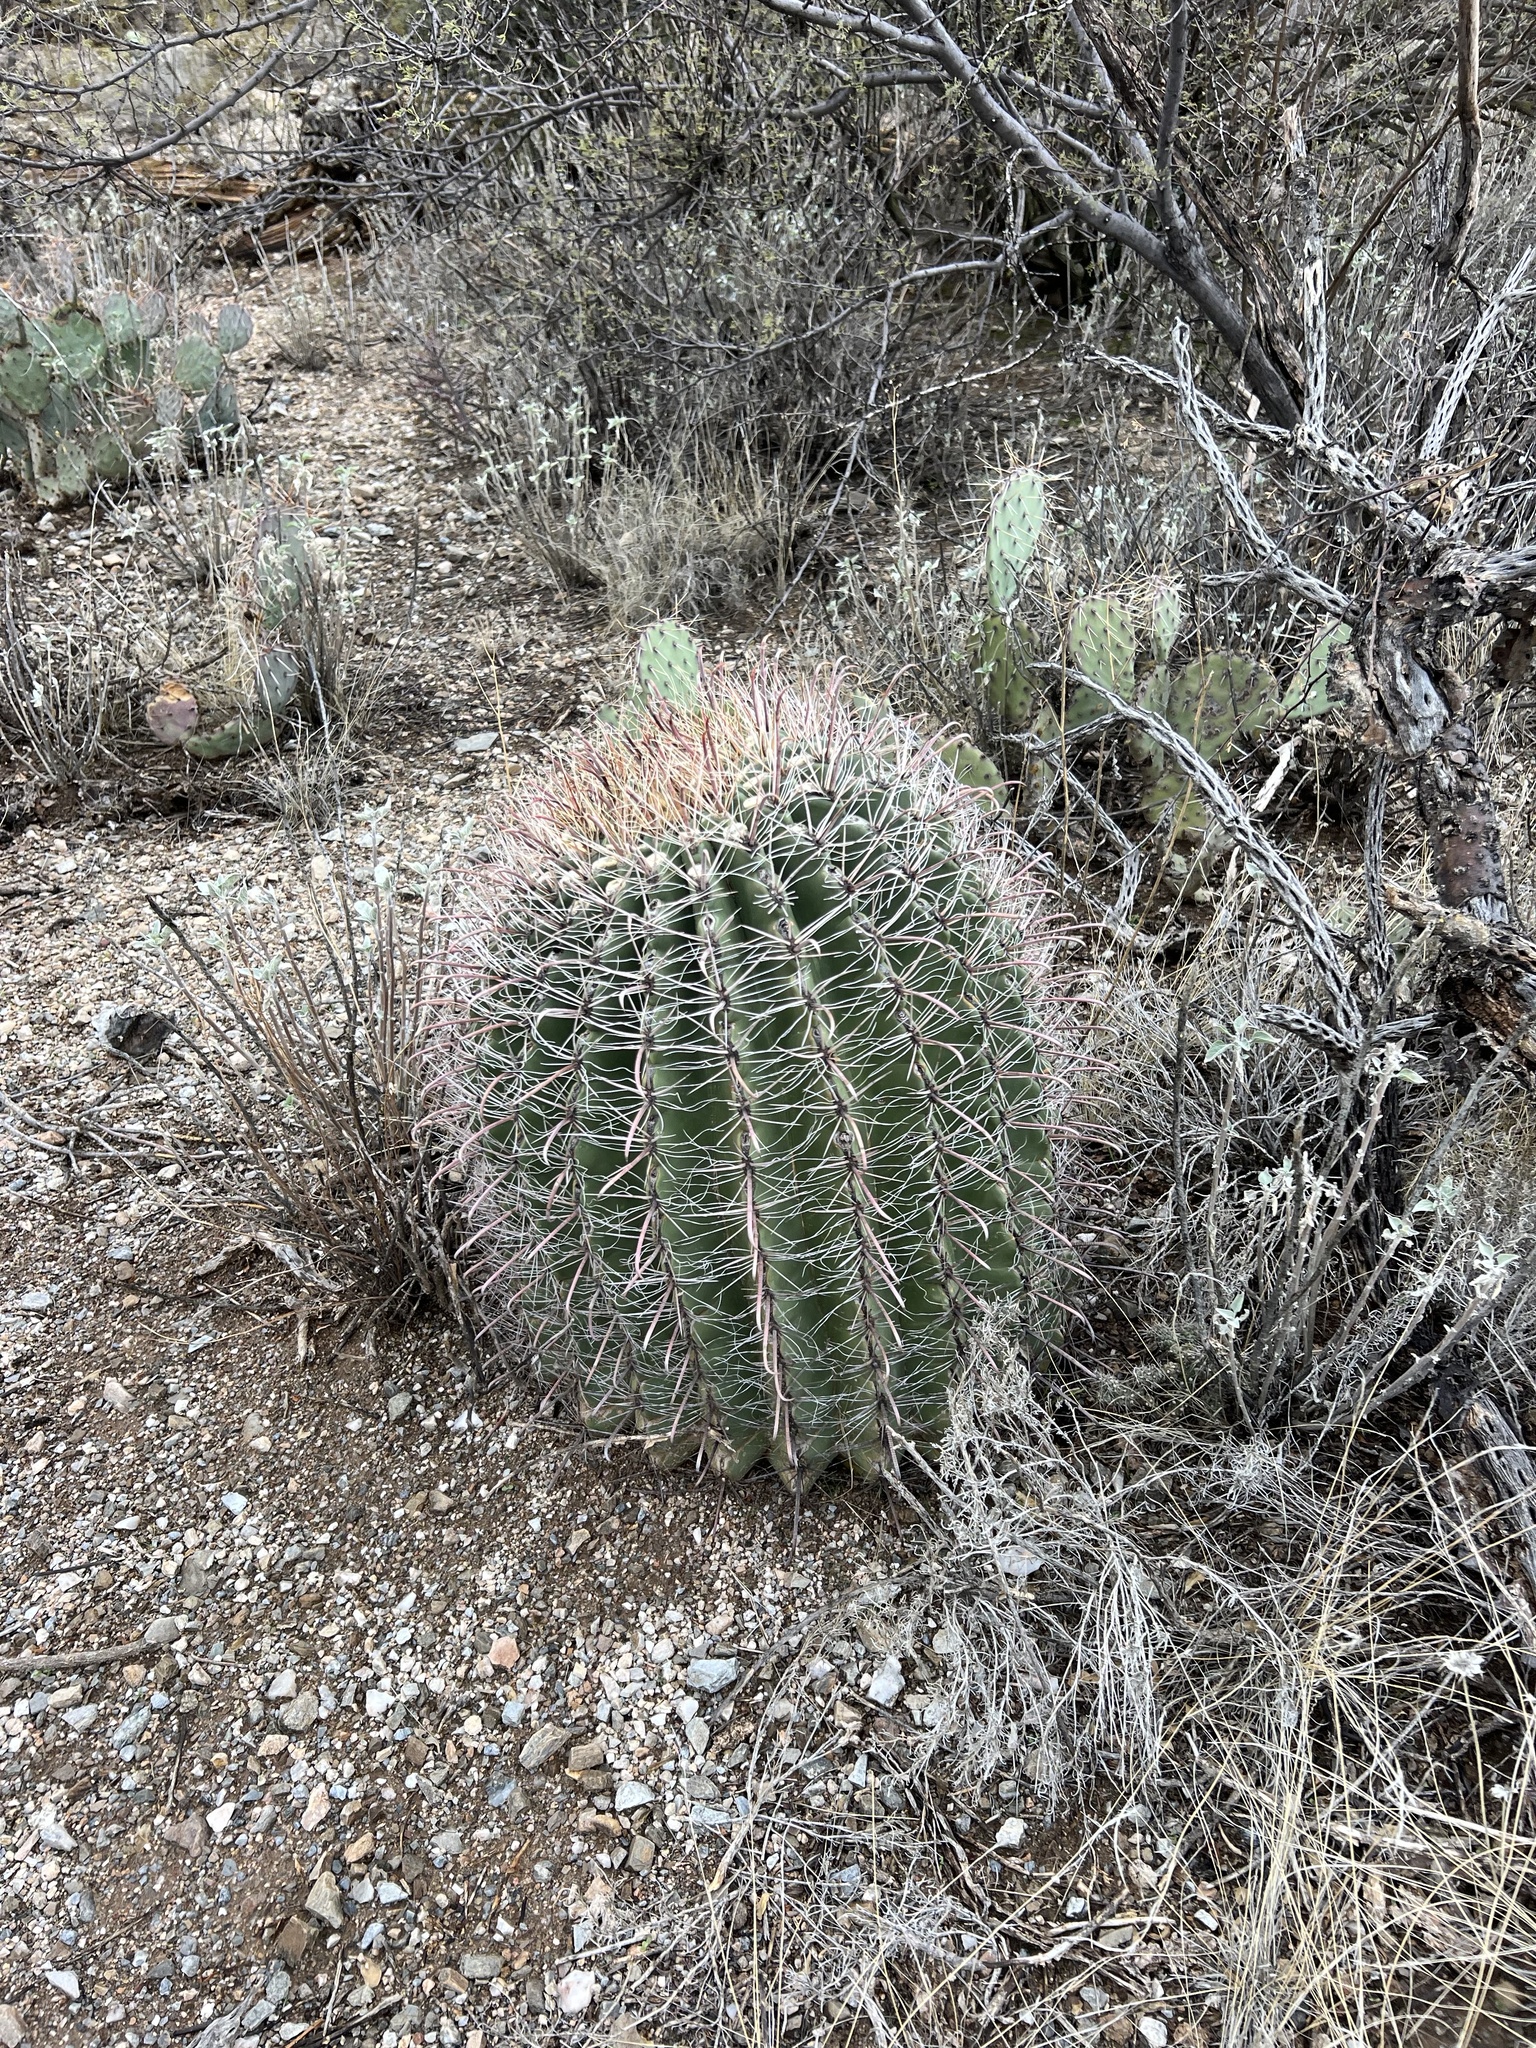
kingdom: Plantae
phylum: Tracheophyta
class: Magnoliopsida
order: Caryophyllales
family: Cactaceae
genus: Ferocactus
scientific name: Ferocactus wislizeni
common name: Candy barrel cactus
